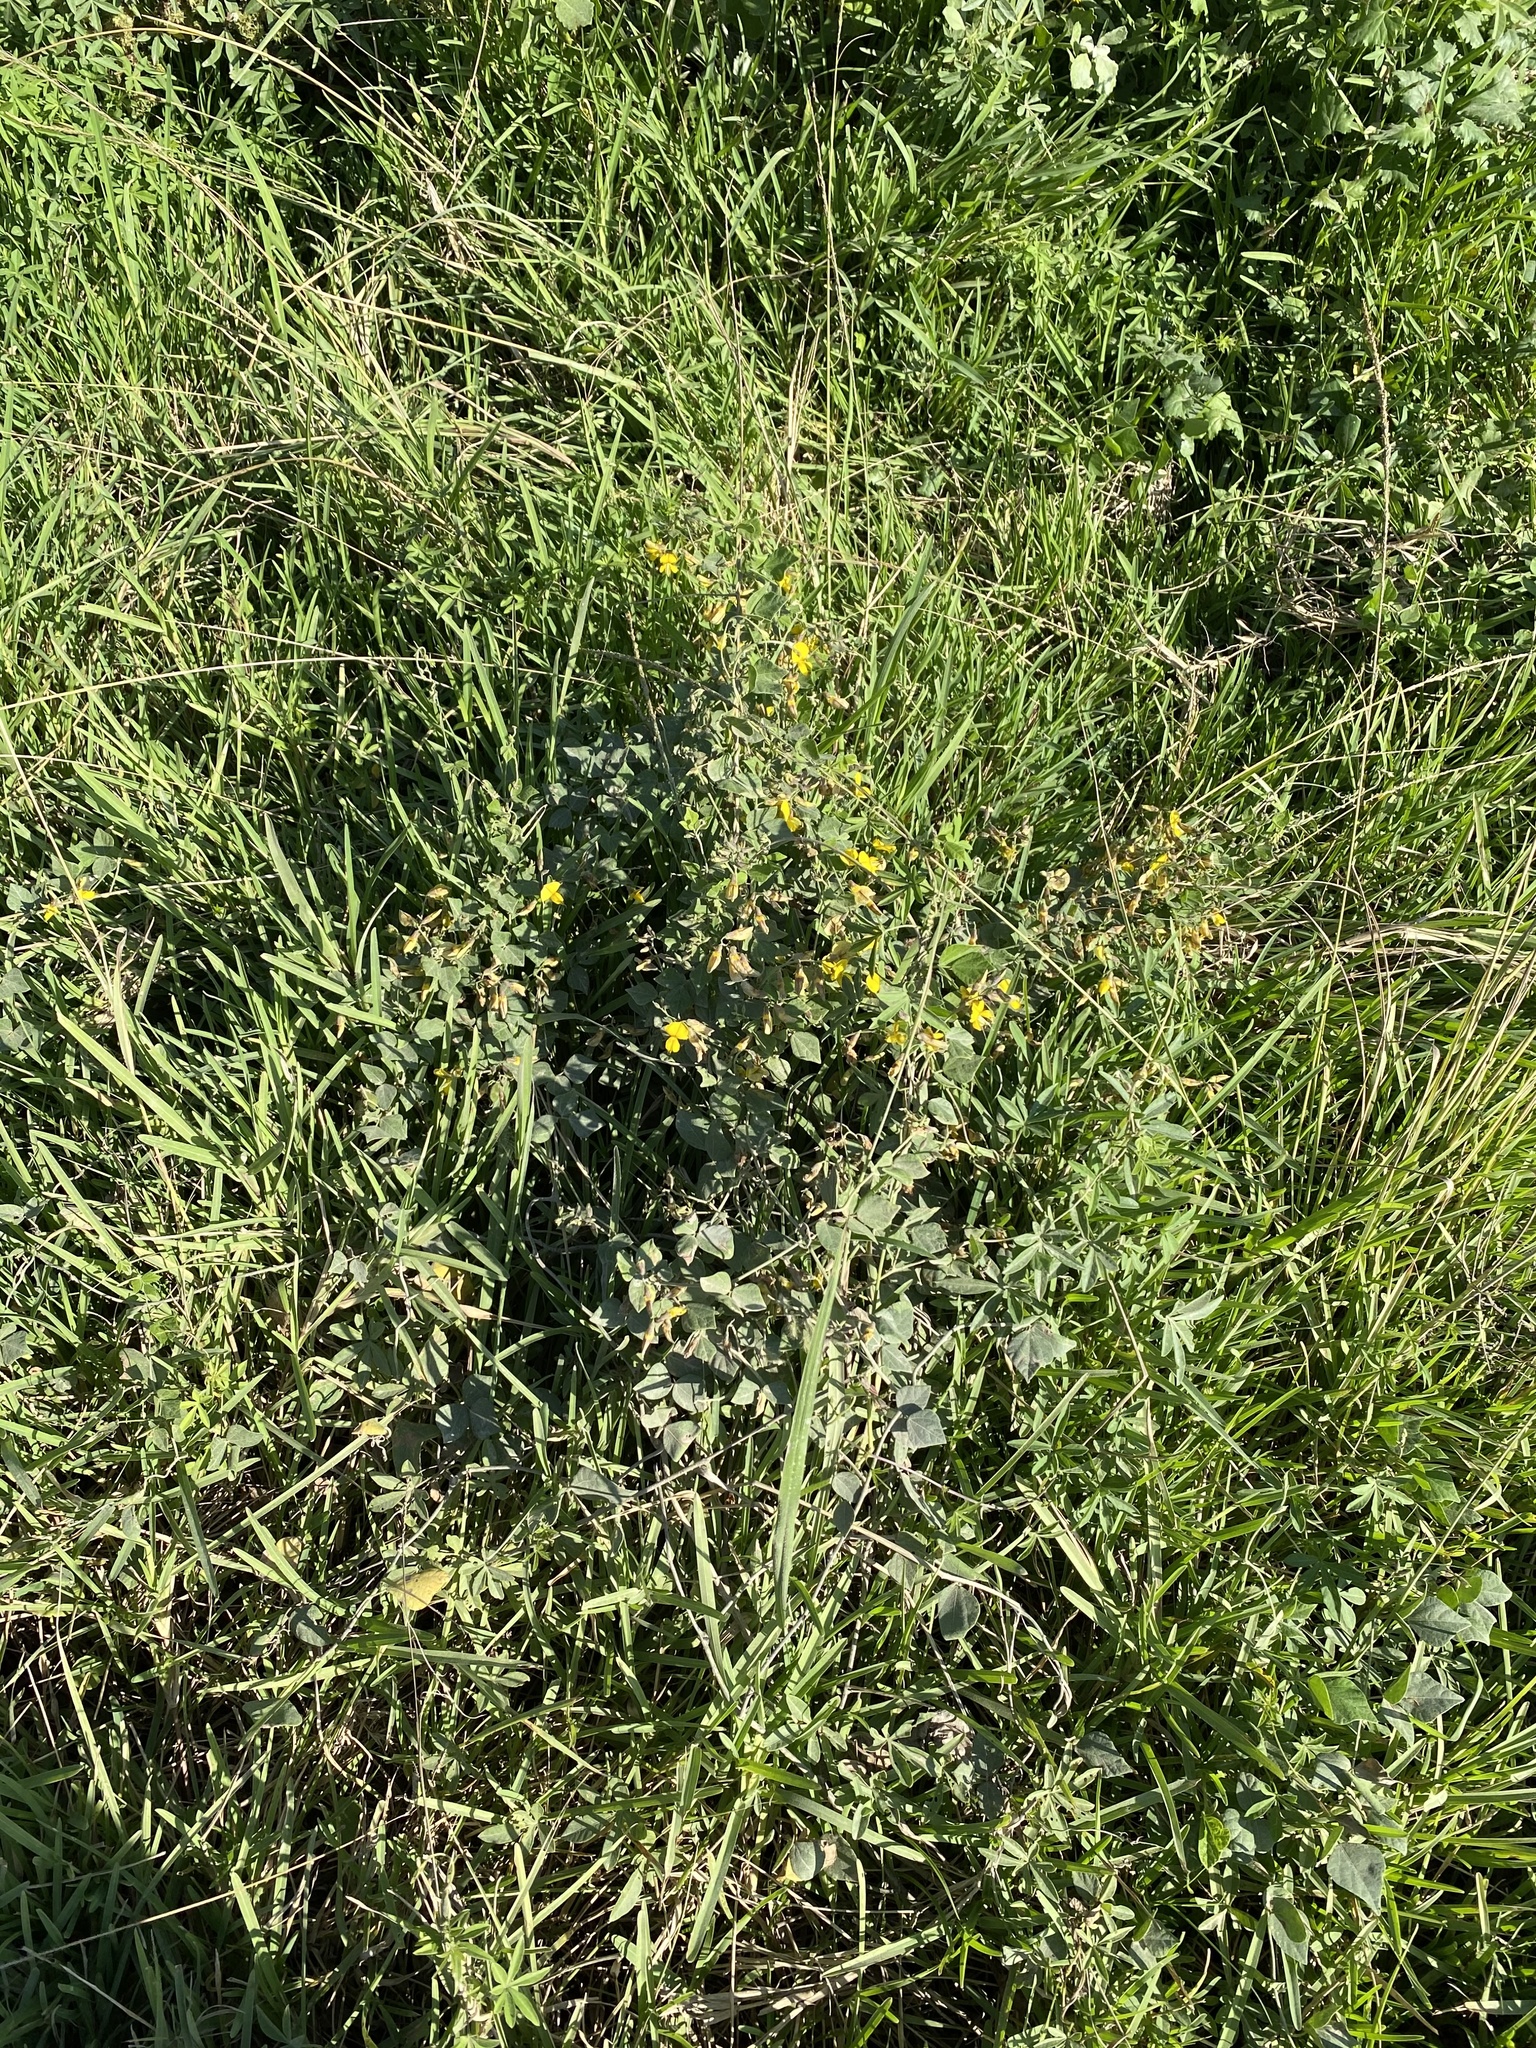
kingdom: Plantae
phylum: Tracheophyta
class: Magnoliopsida
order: Fabales
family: Fabaceae
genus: Rhynchosia
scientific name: Rhynchosia caribaea
